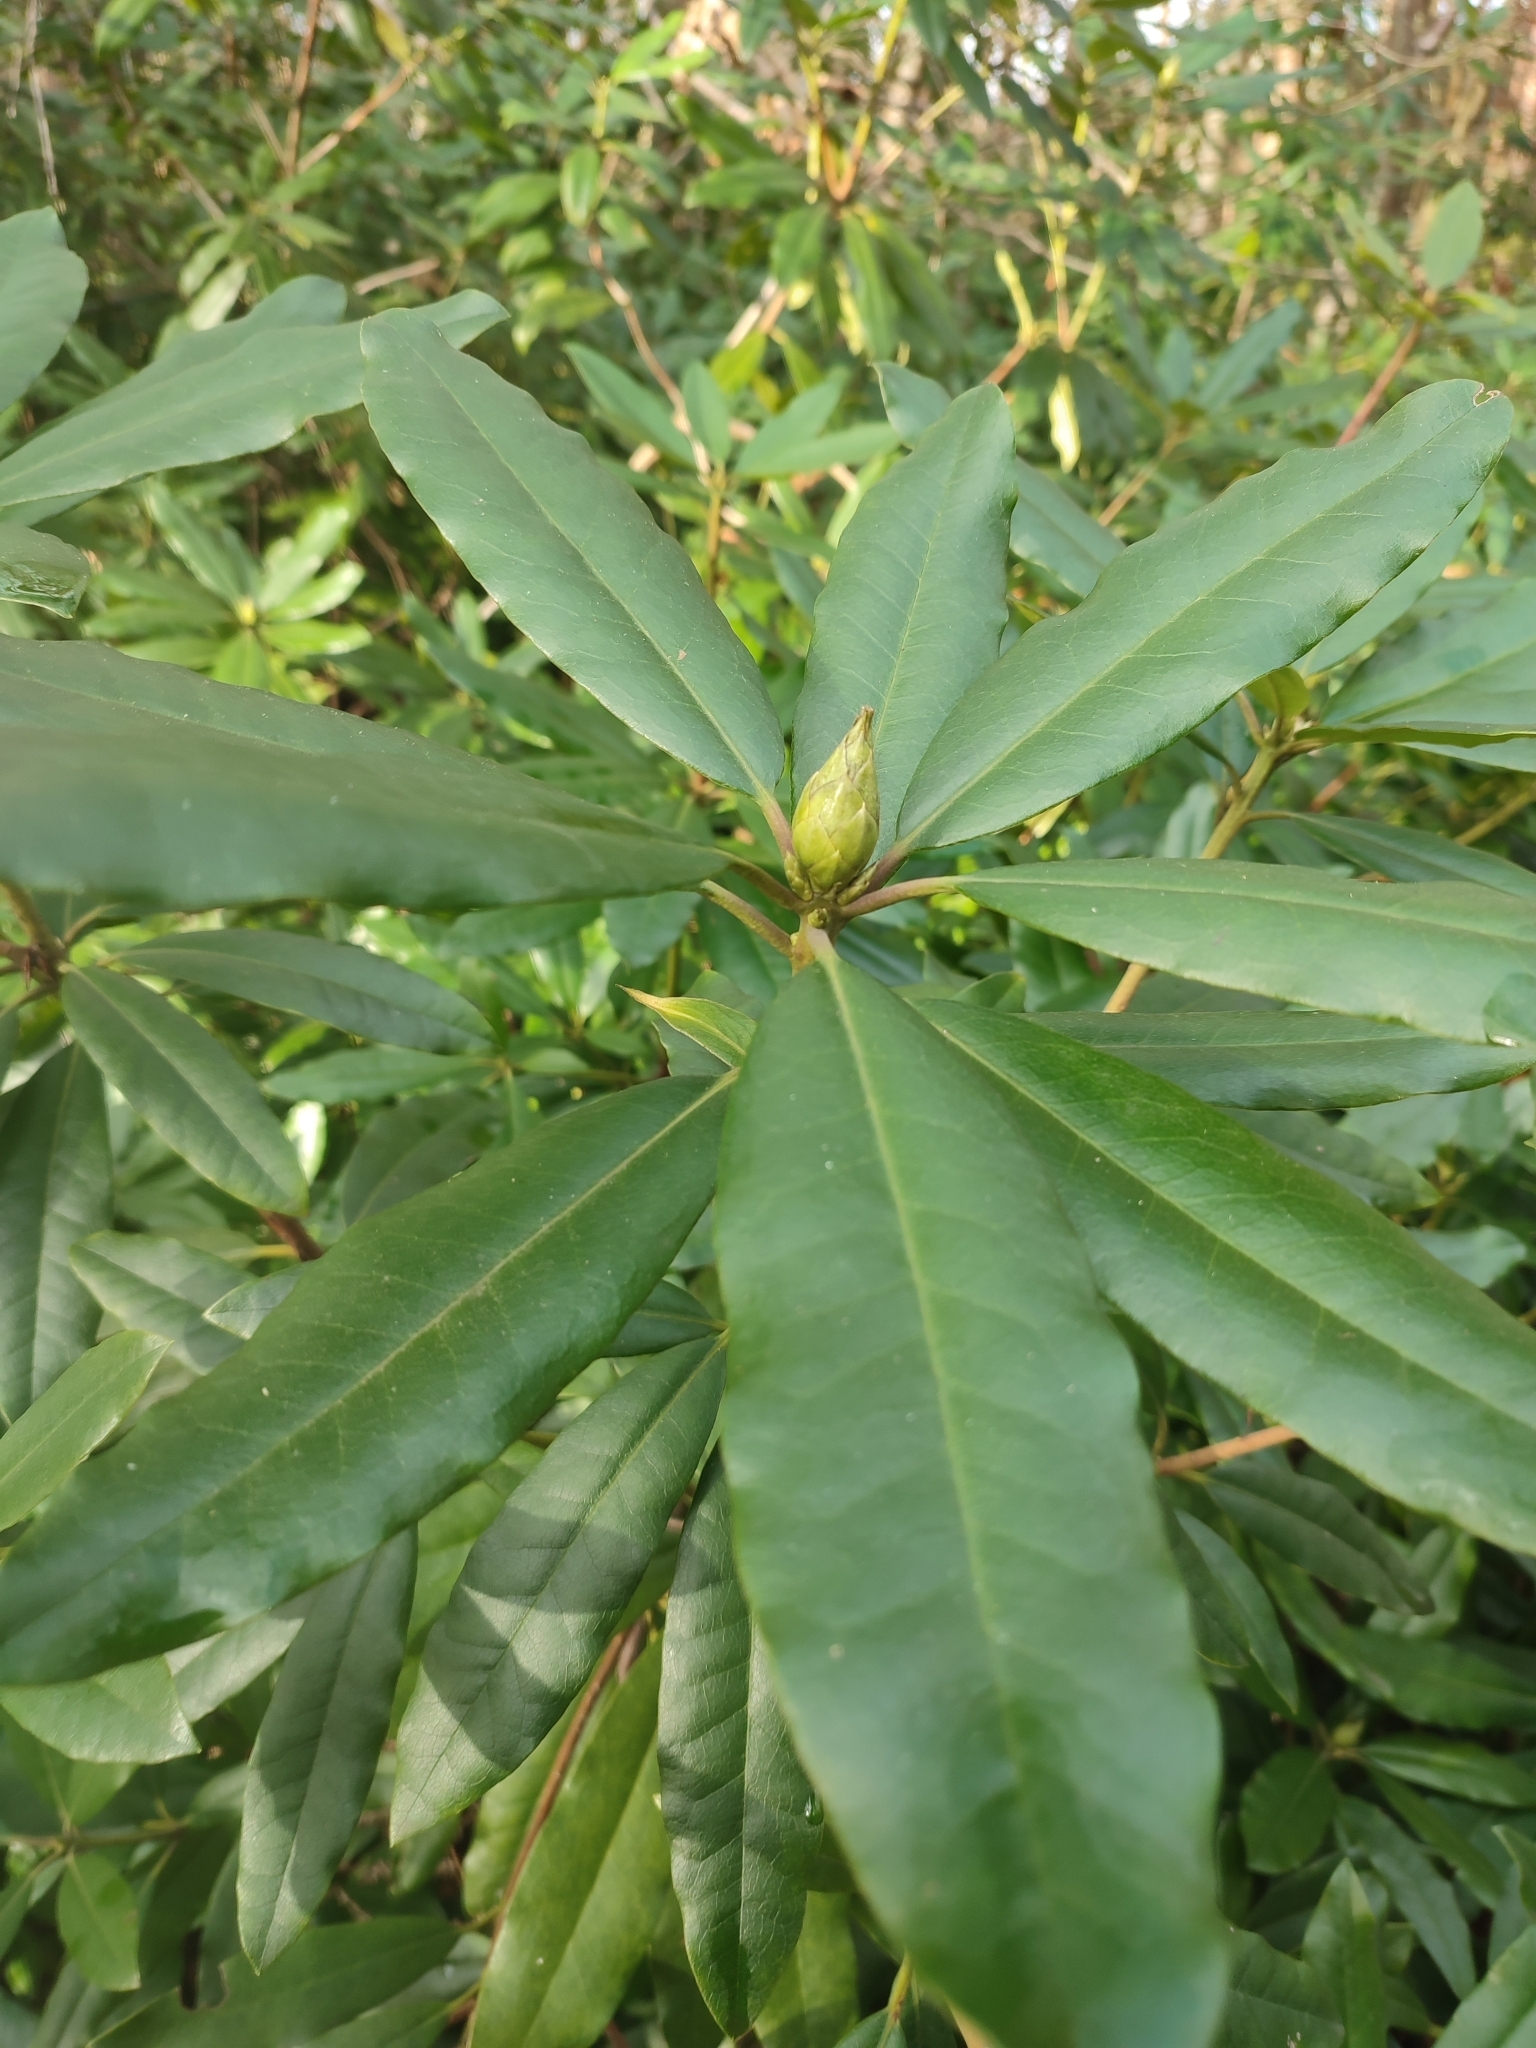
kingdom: Plantae
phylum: Tracheophyta
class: Magnoliopsida
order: Ericales
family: Ericaceae
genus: Rhododendron
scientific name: Rhododendron ponticum
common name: Rhododendron
